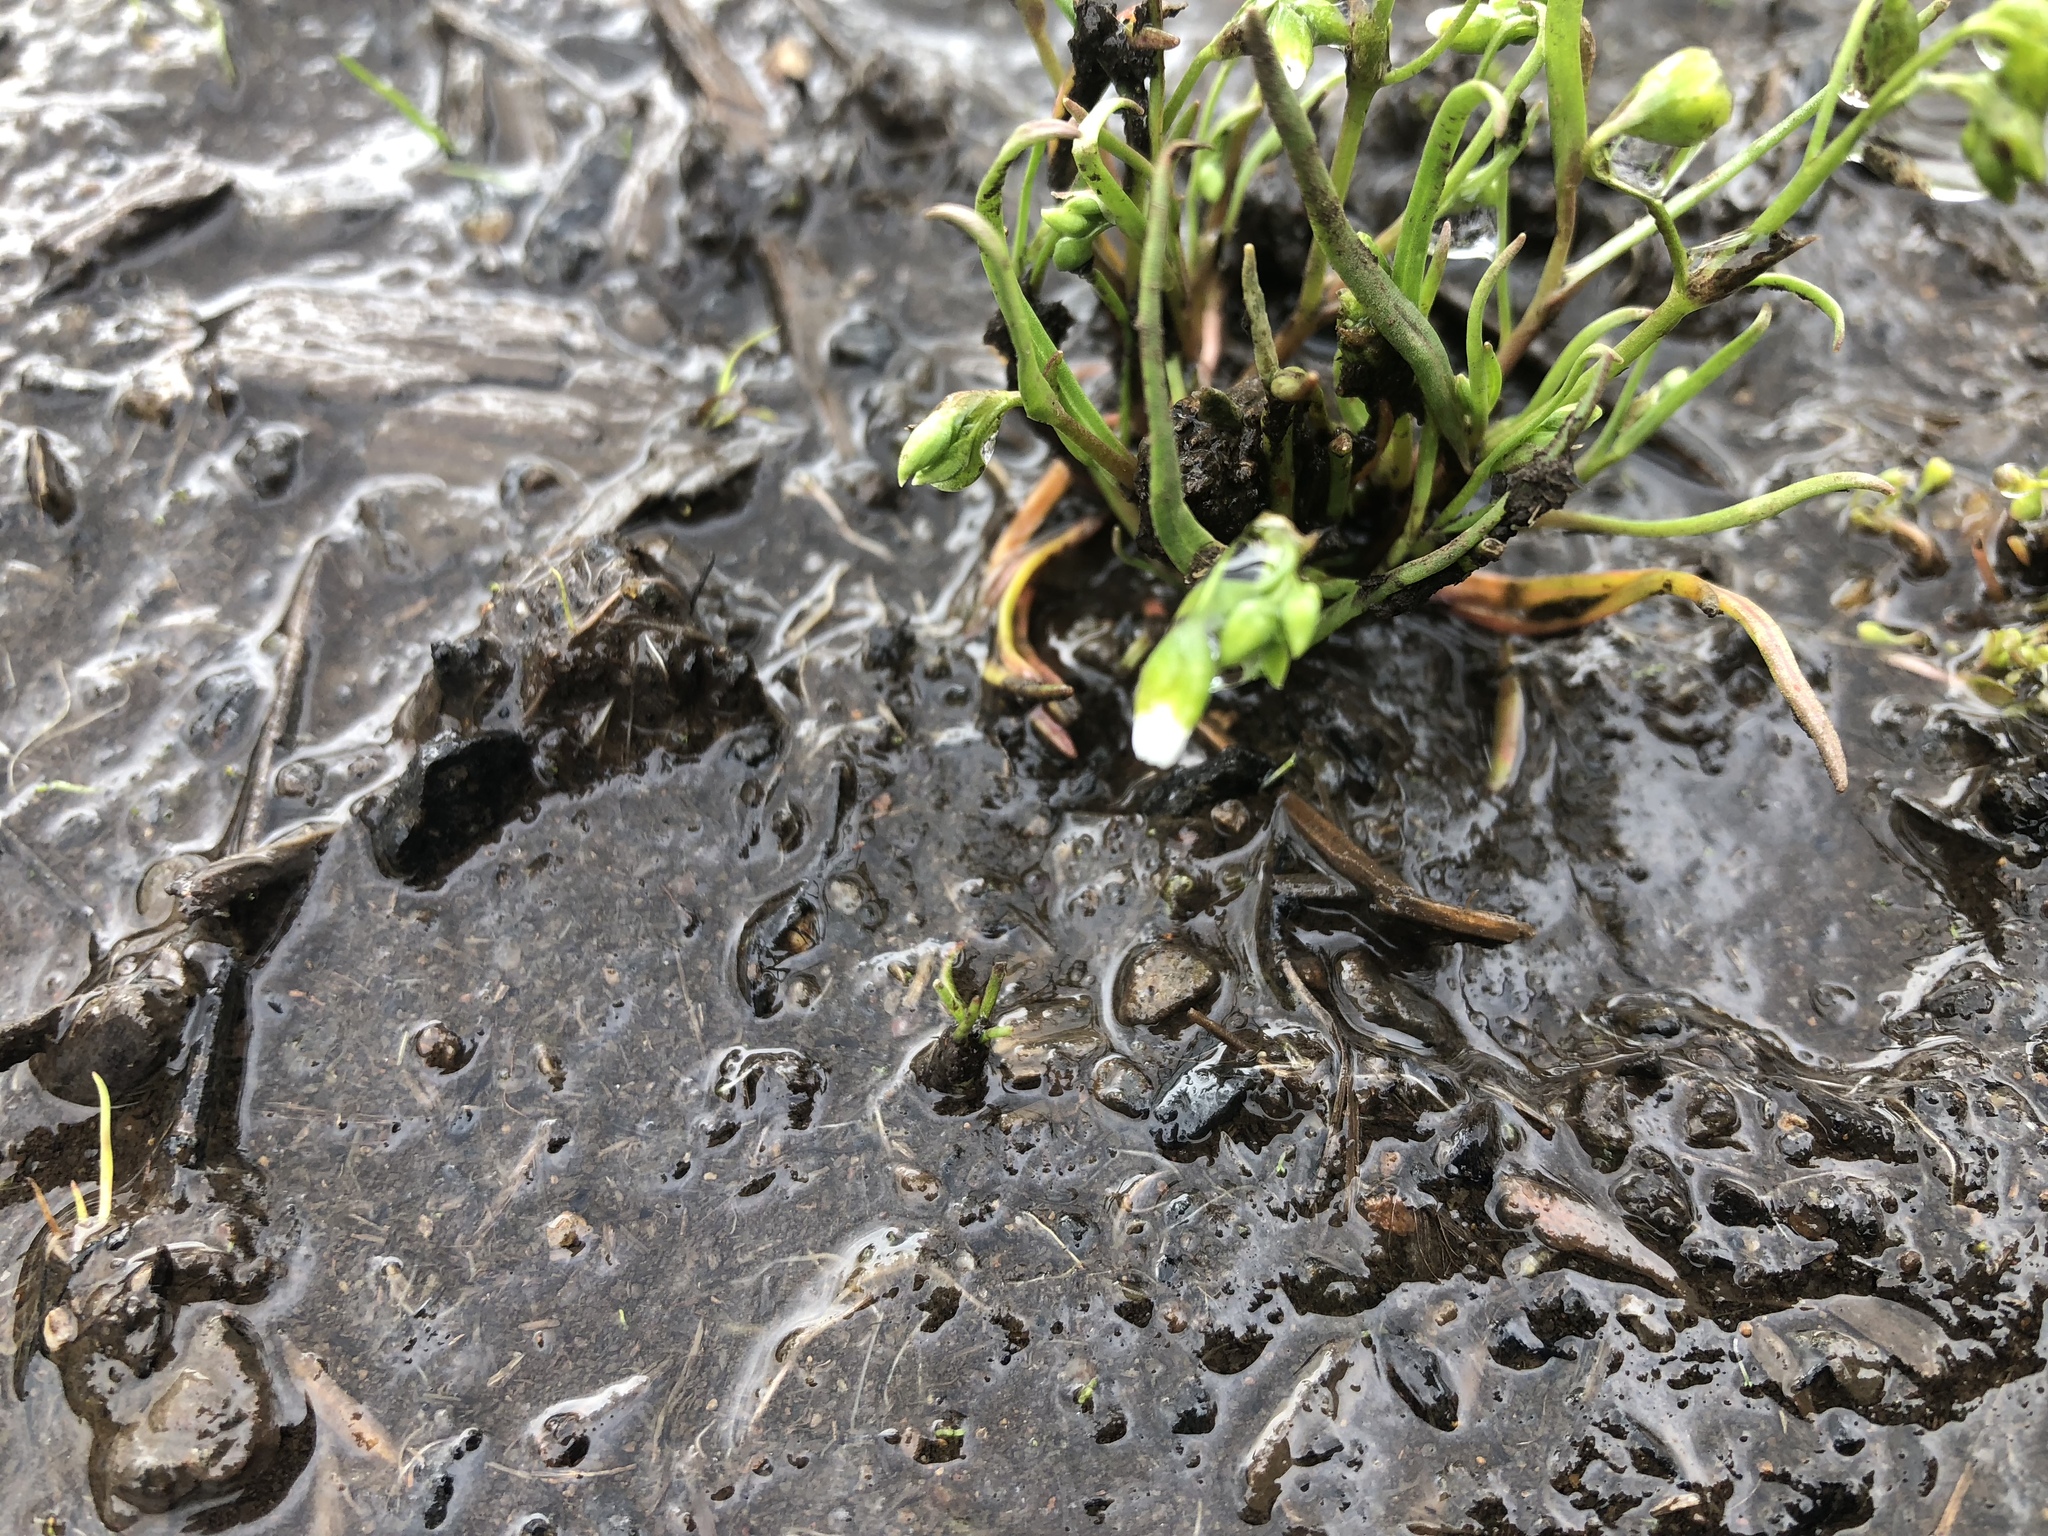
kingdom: Plantae
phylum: Tracheophyta
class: Magnoliopsida
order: Caryophyllales
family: Montiaceae
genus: Montia
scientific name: Montia linearis
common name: Narrow-leaf montia
